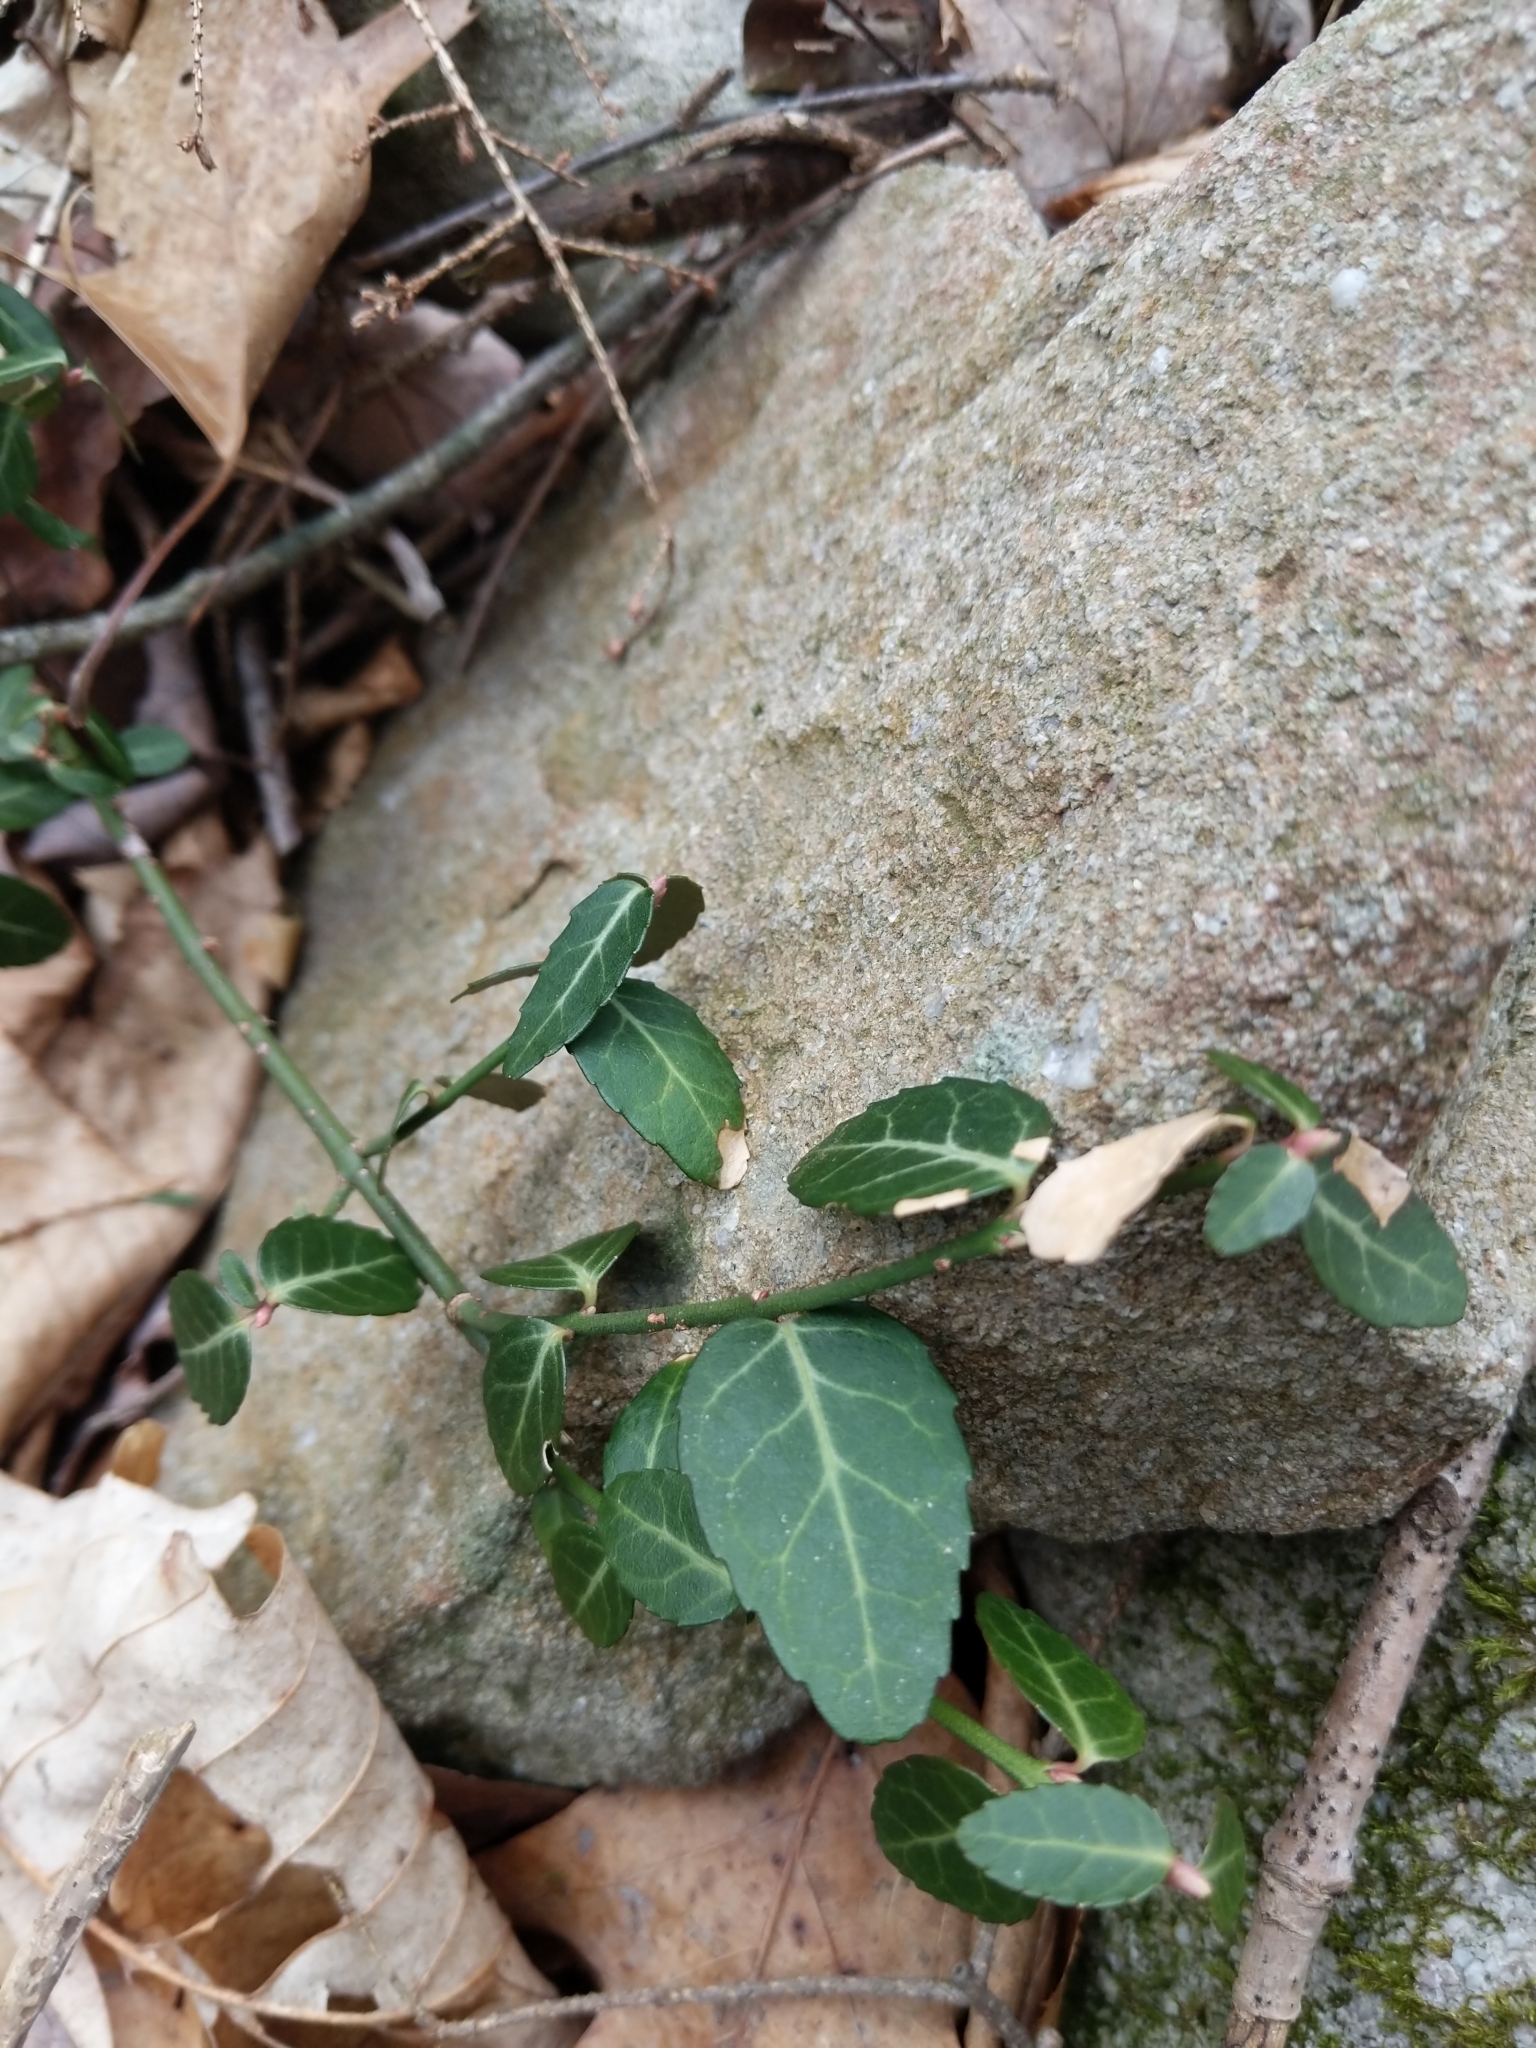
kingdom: Plantae
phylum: Tracheophyta
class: Magnoliopsida
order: Celastrales
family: Celastraceae
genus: Euonymus
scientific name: Euonymus fortunei
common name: Climbing euonymus
